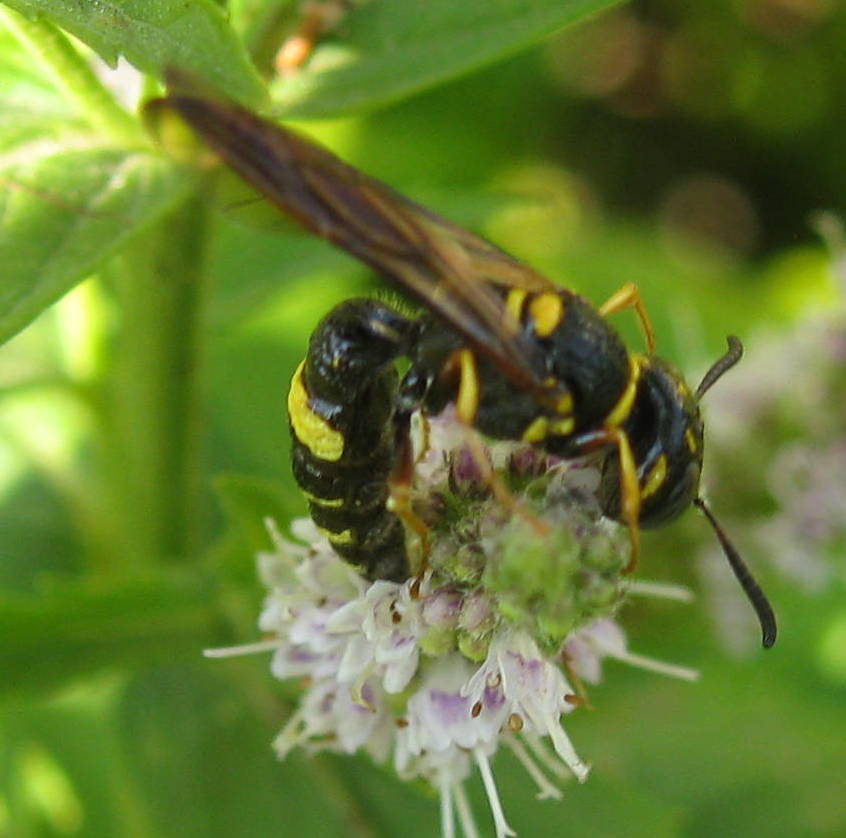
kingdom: Animalia
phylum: Arthropoda
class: Insecta
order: Hymenoptera
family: Crabronidae
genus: Philanthus
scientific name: Philanthus gibbosus
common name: Humped beewolf
